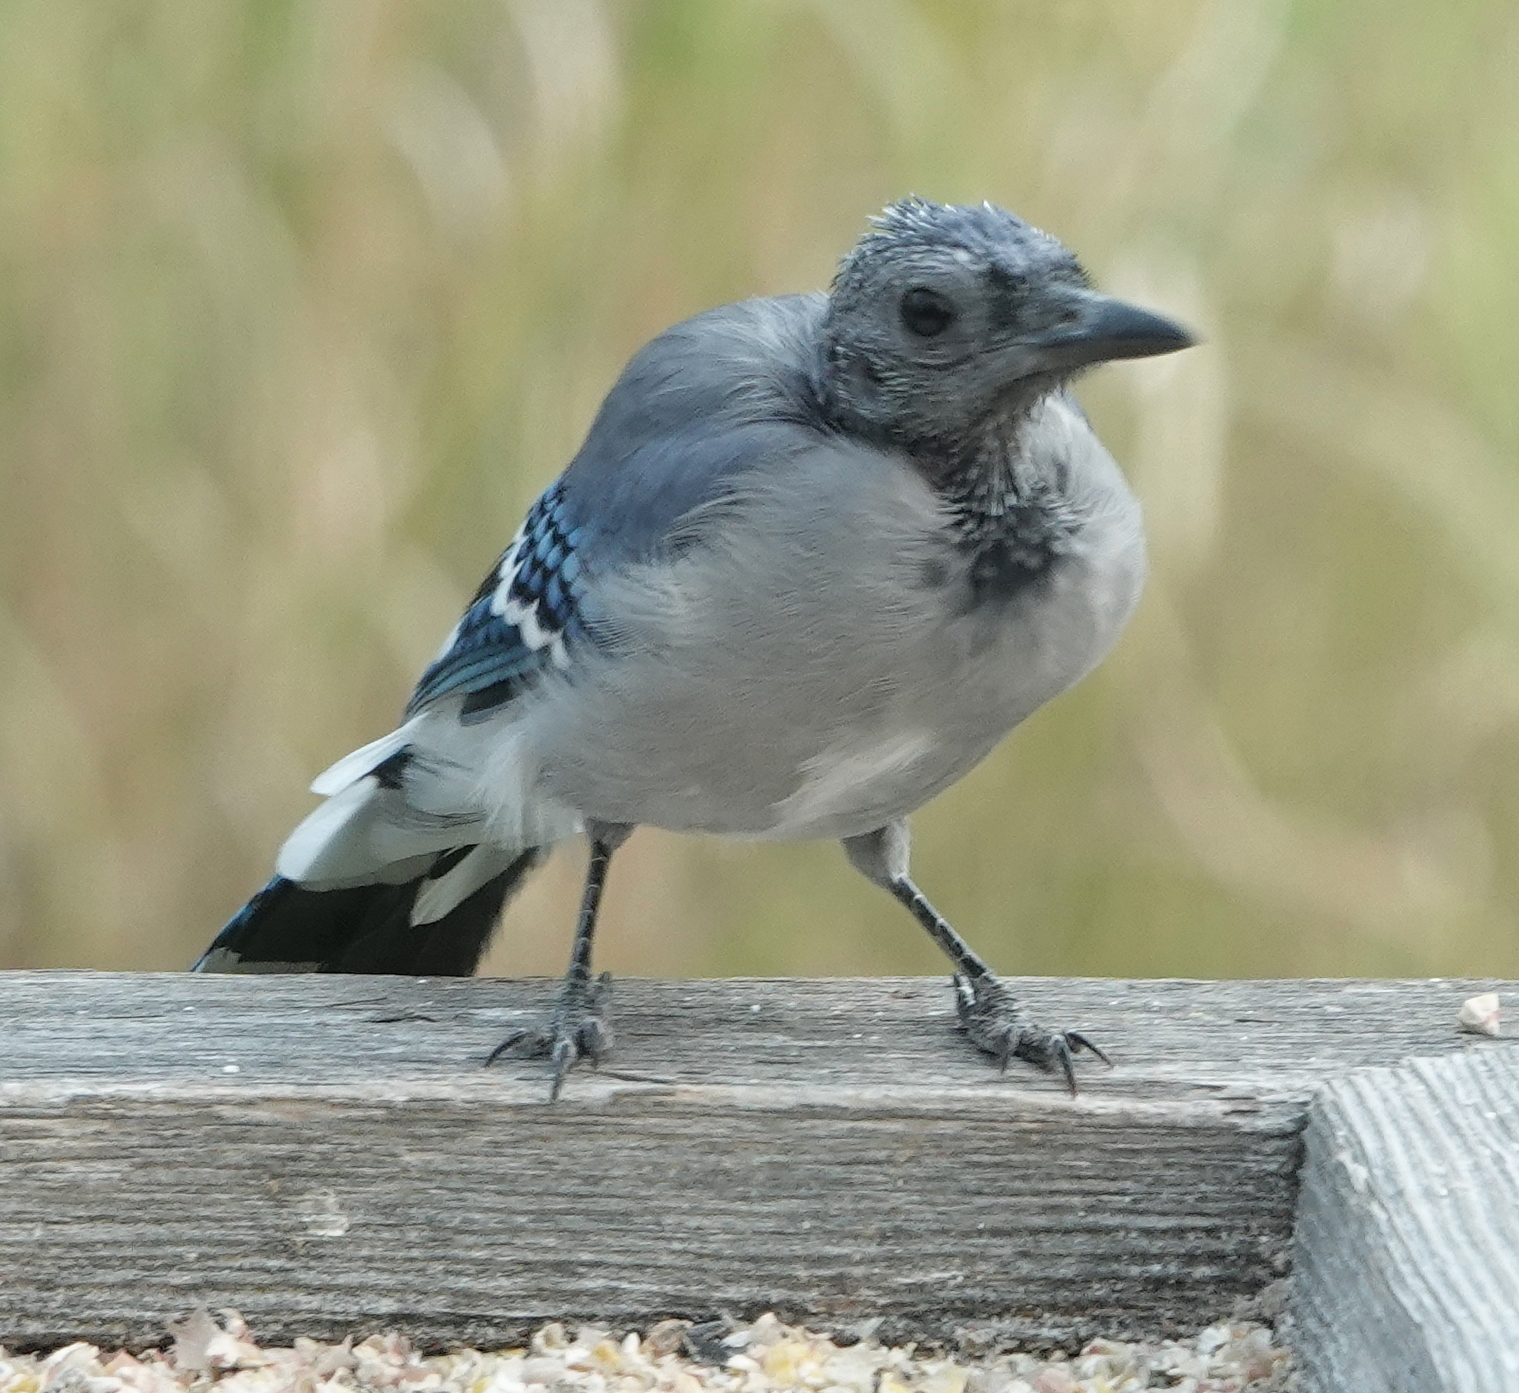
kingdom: Animalia
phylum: Chordata
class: Aves
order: Passeriformes
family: Corvidae
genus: Cyanocitta
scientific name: Cyanocitta cristata
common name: Blue jay
